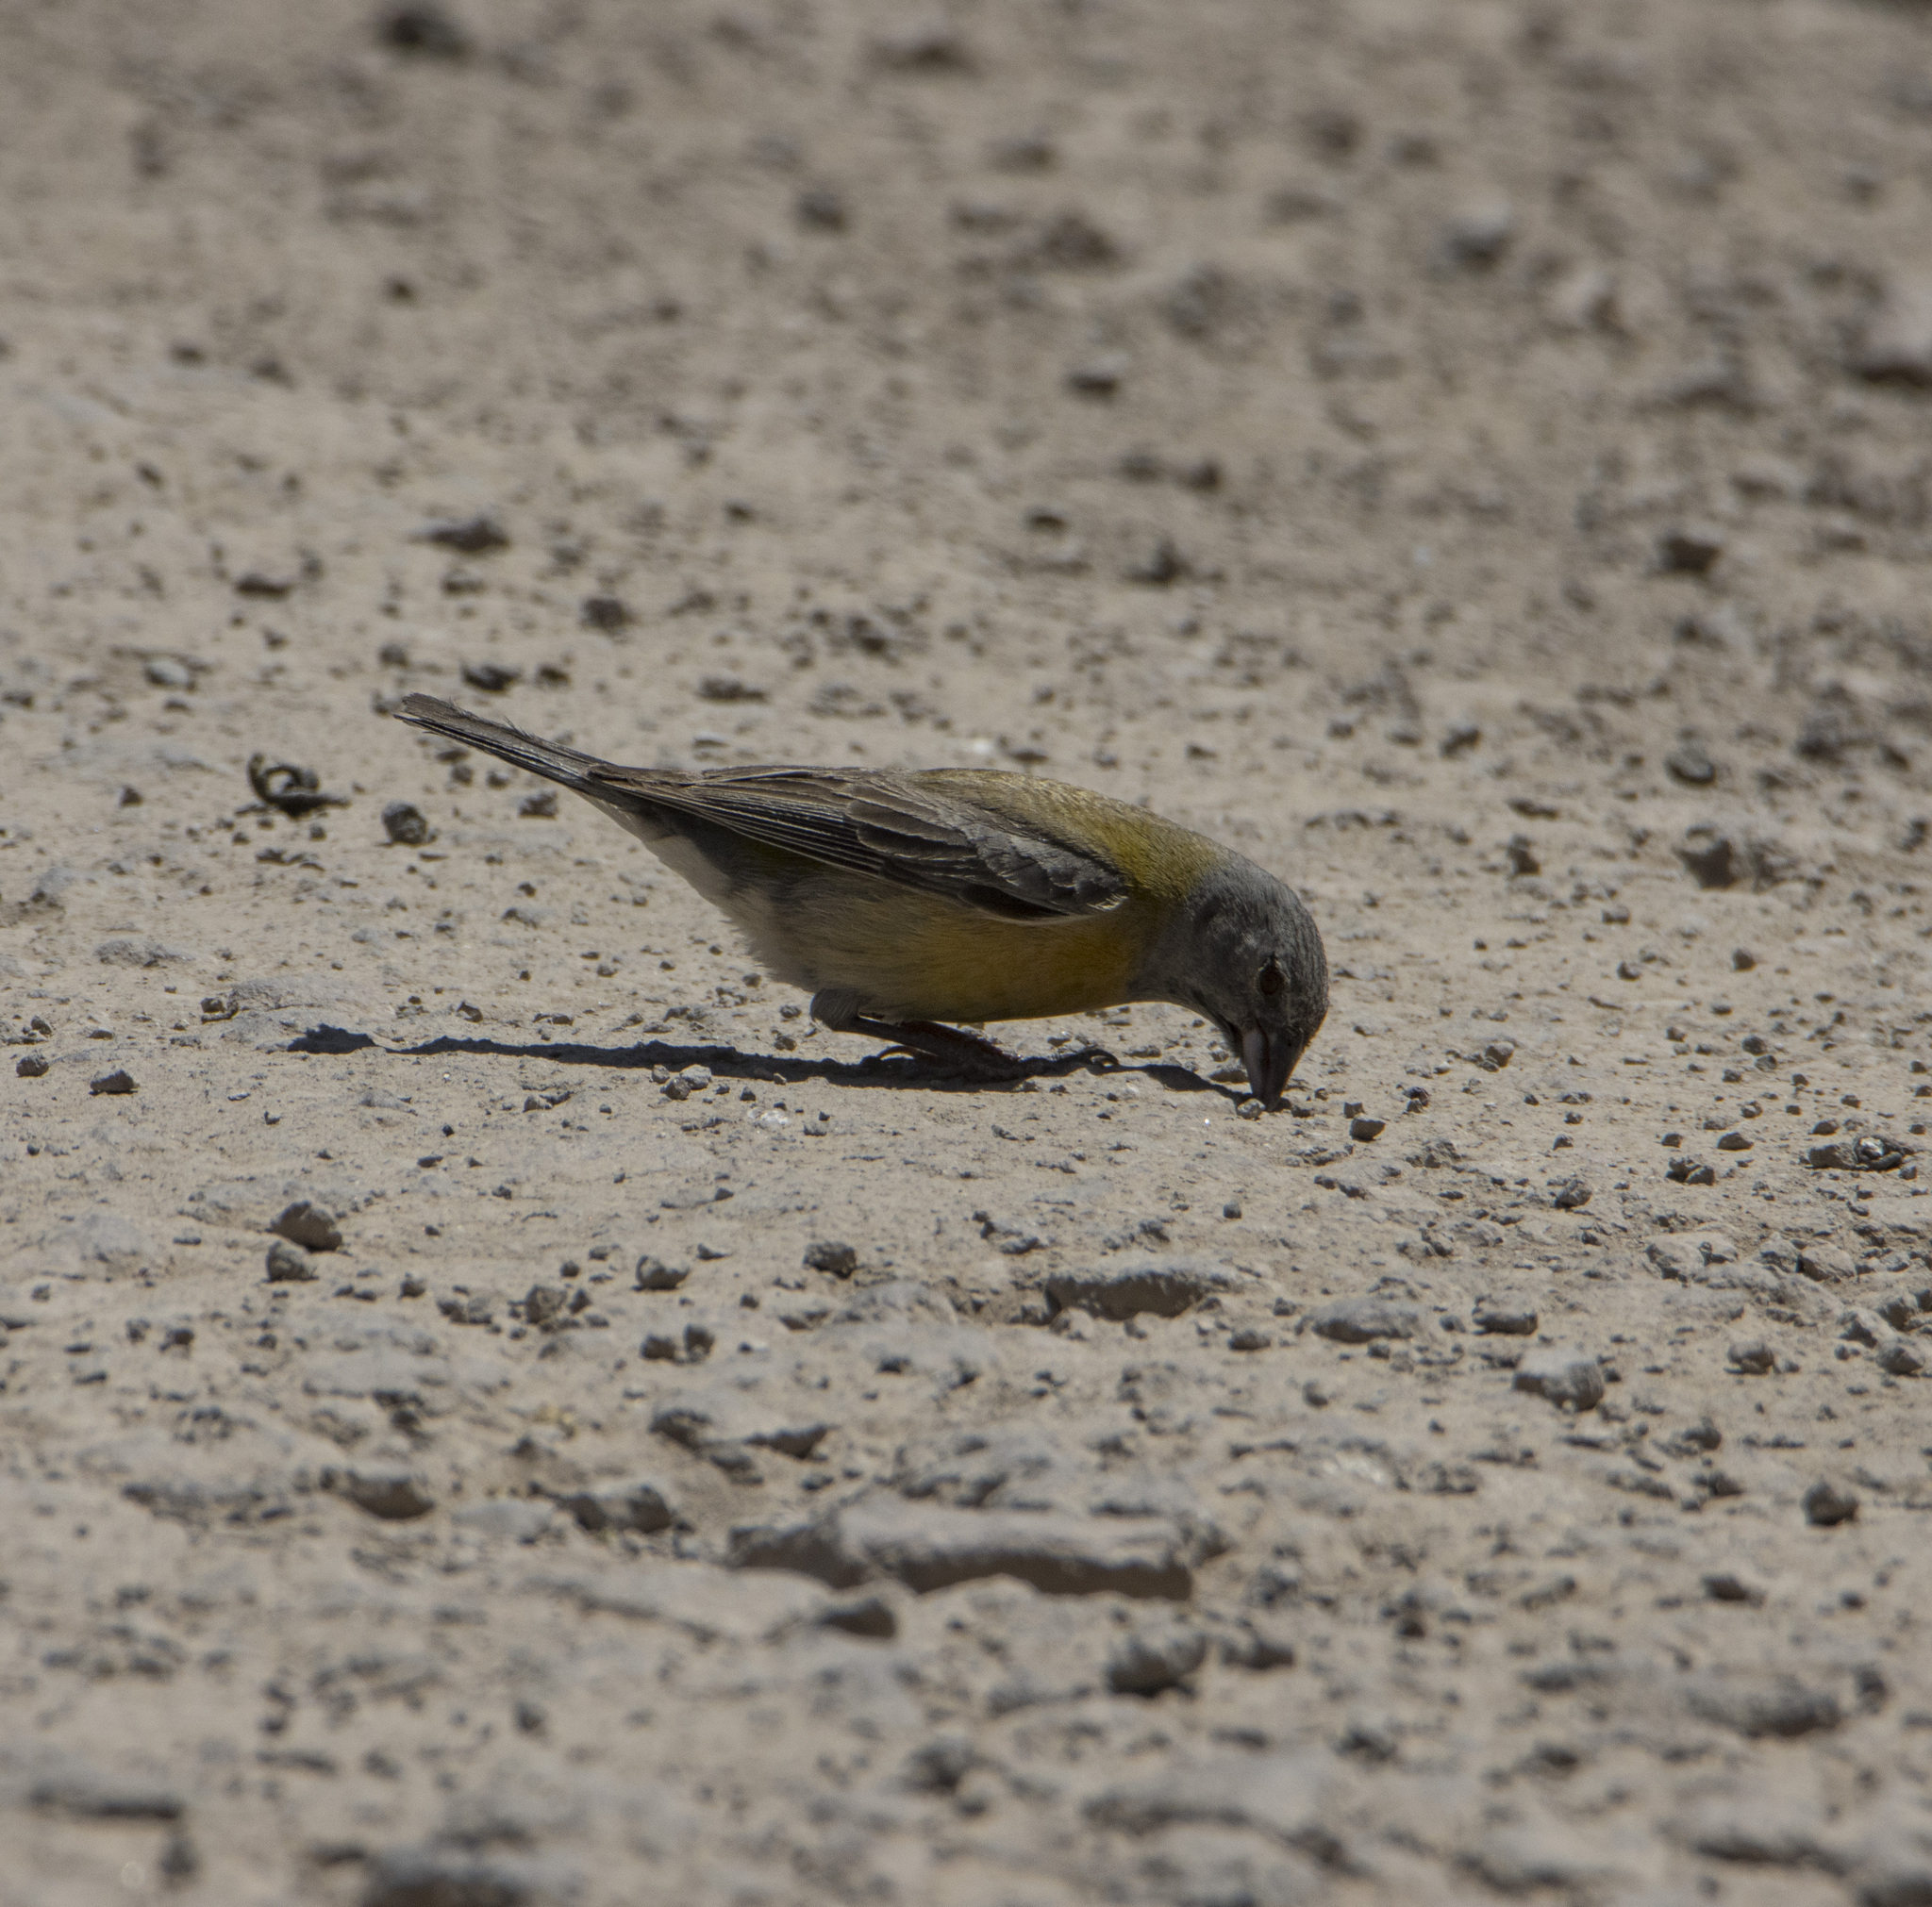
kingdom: Animalia
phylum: Chordata
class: Aves
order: Passeriformes
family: Thraupidae
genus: Phrygilus
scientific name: Phrygilus gayi
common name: Grey-hooded sierra finch
